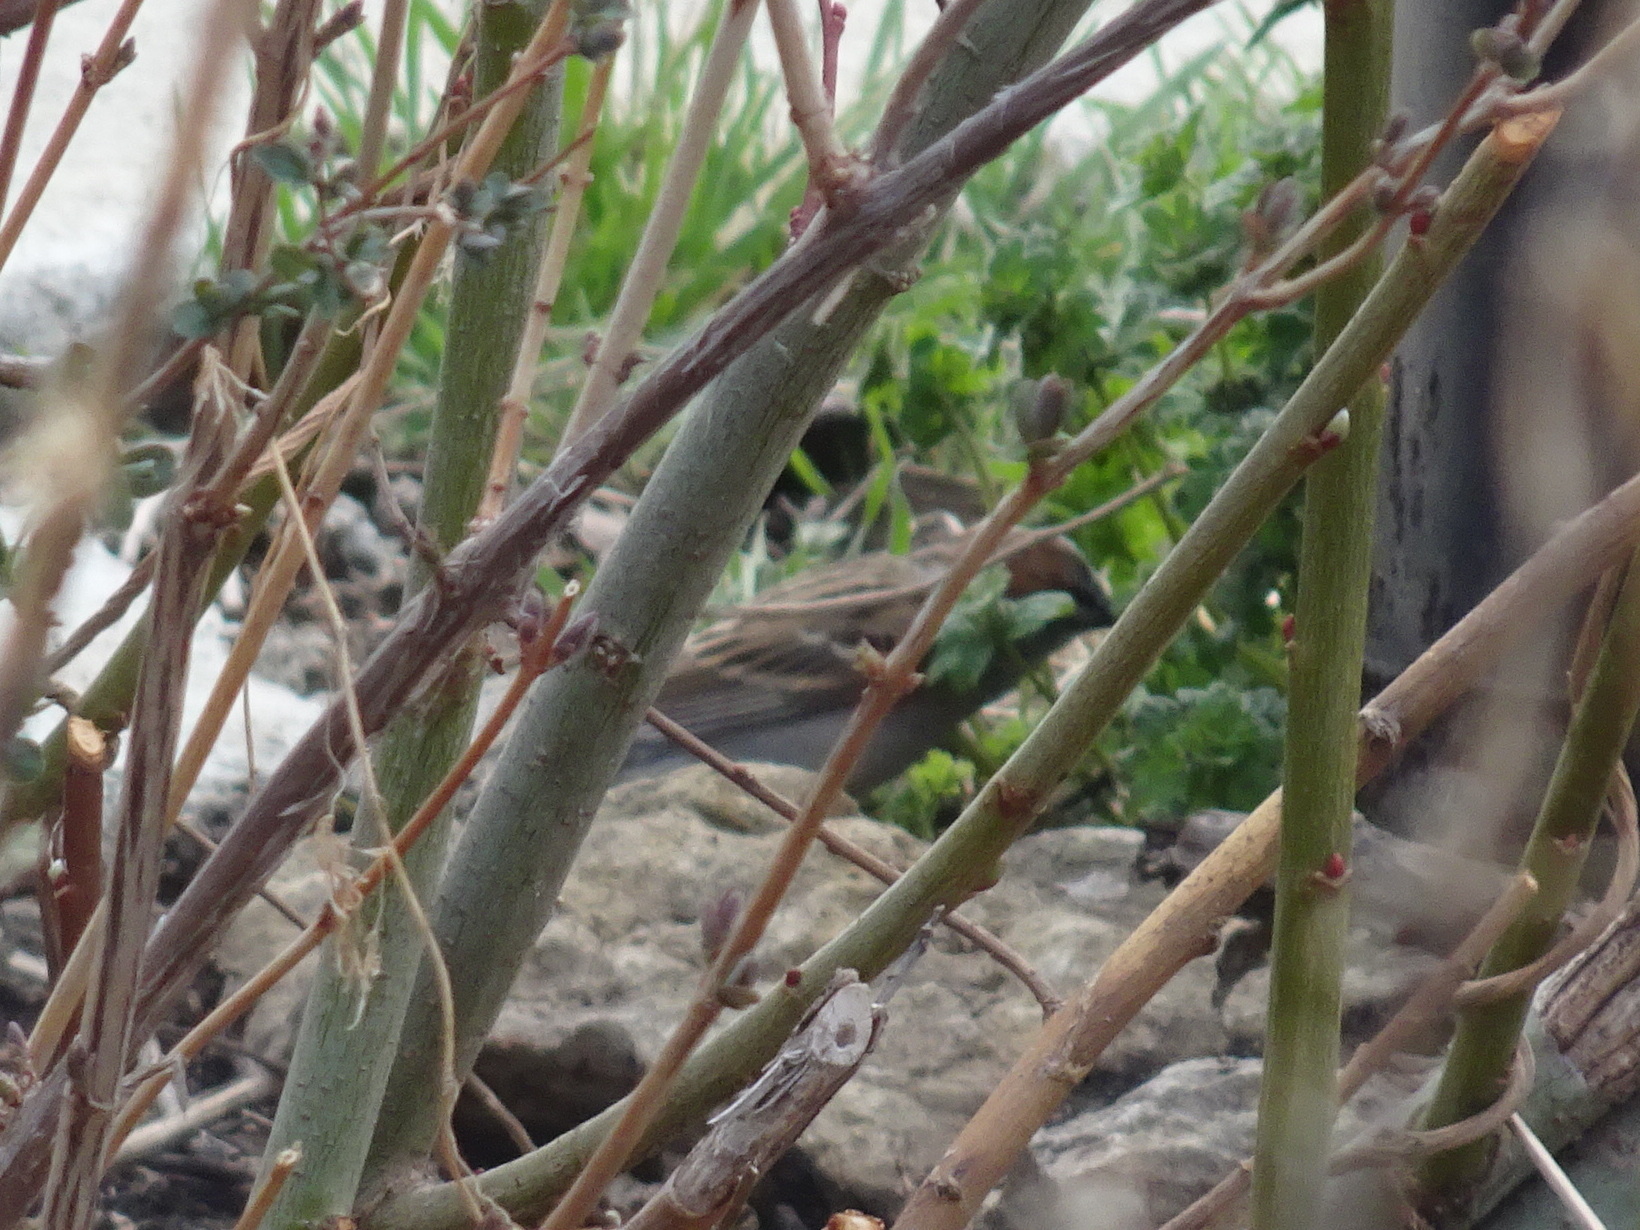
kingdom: Animalia
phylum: Chordata
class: Aves
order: Passeriformes
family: Passerellidae
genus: Spizella
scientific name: Spizella passerina
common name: Chipping sparrow
